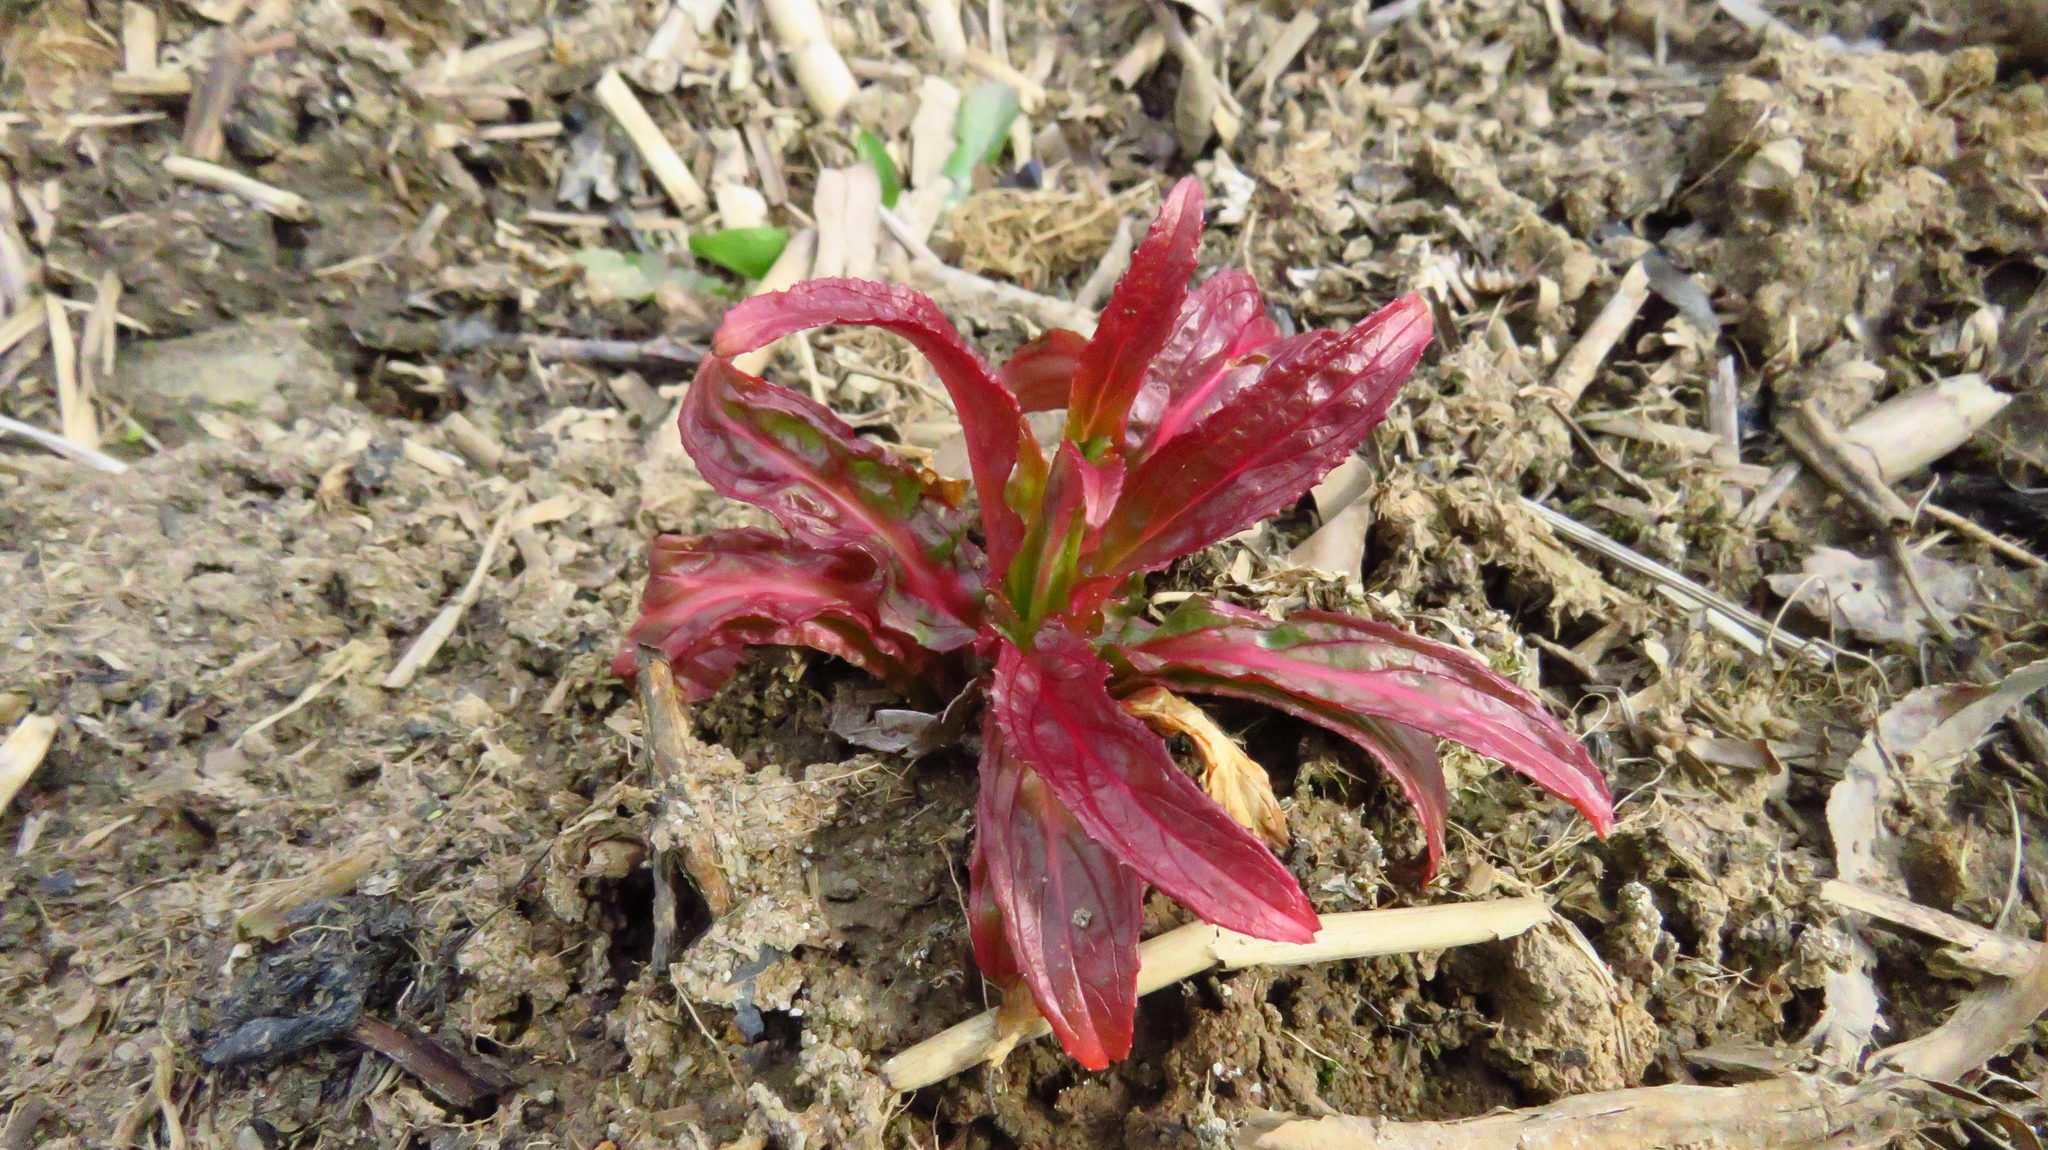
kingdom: Plantae
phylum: Tracheophyta
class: Magnoliopsida
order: Myrtales
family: Onagraceae
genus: Epilobium
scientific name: Epilobium
